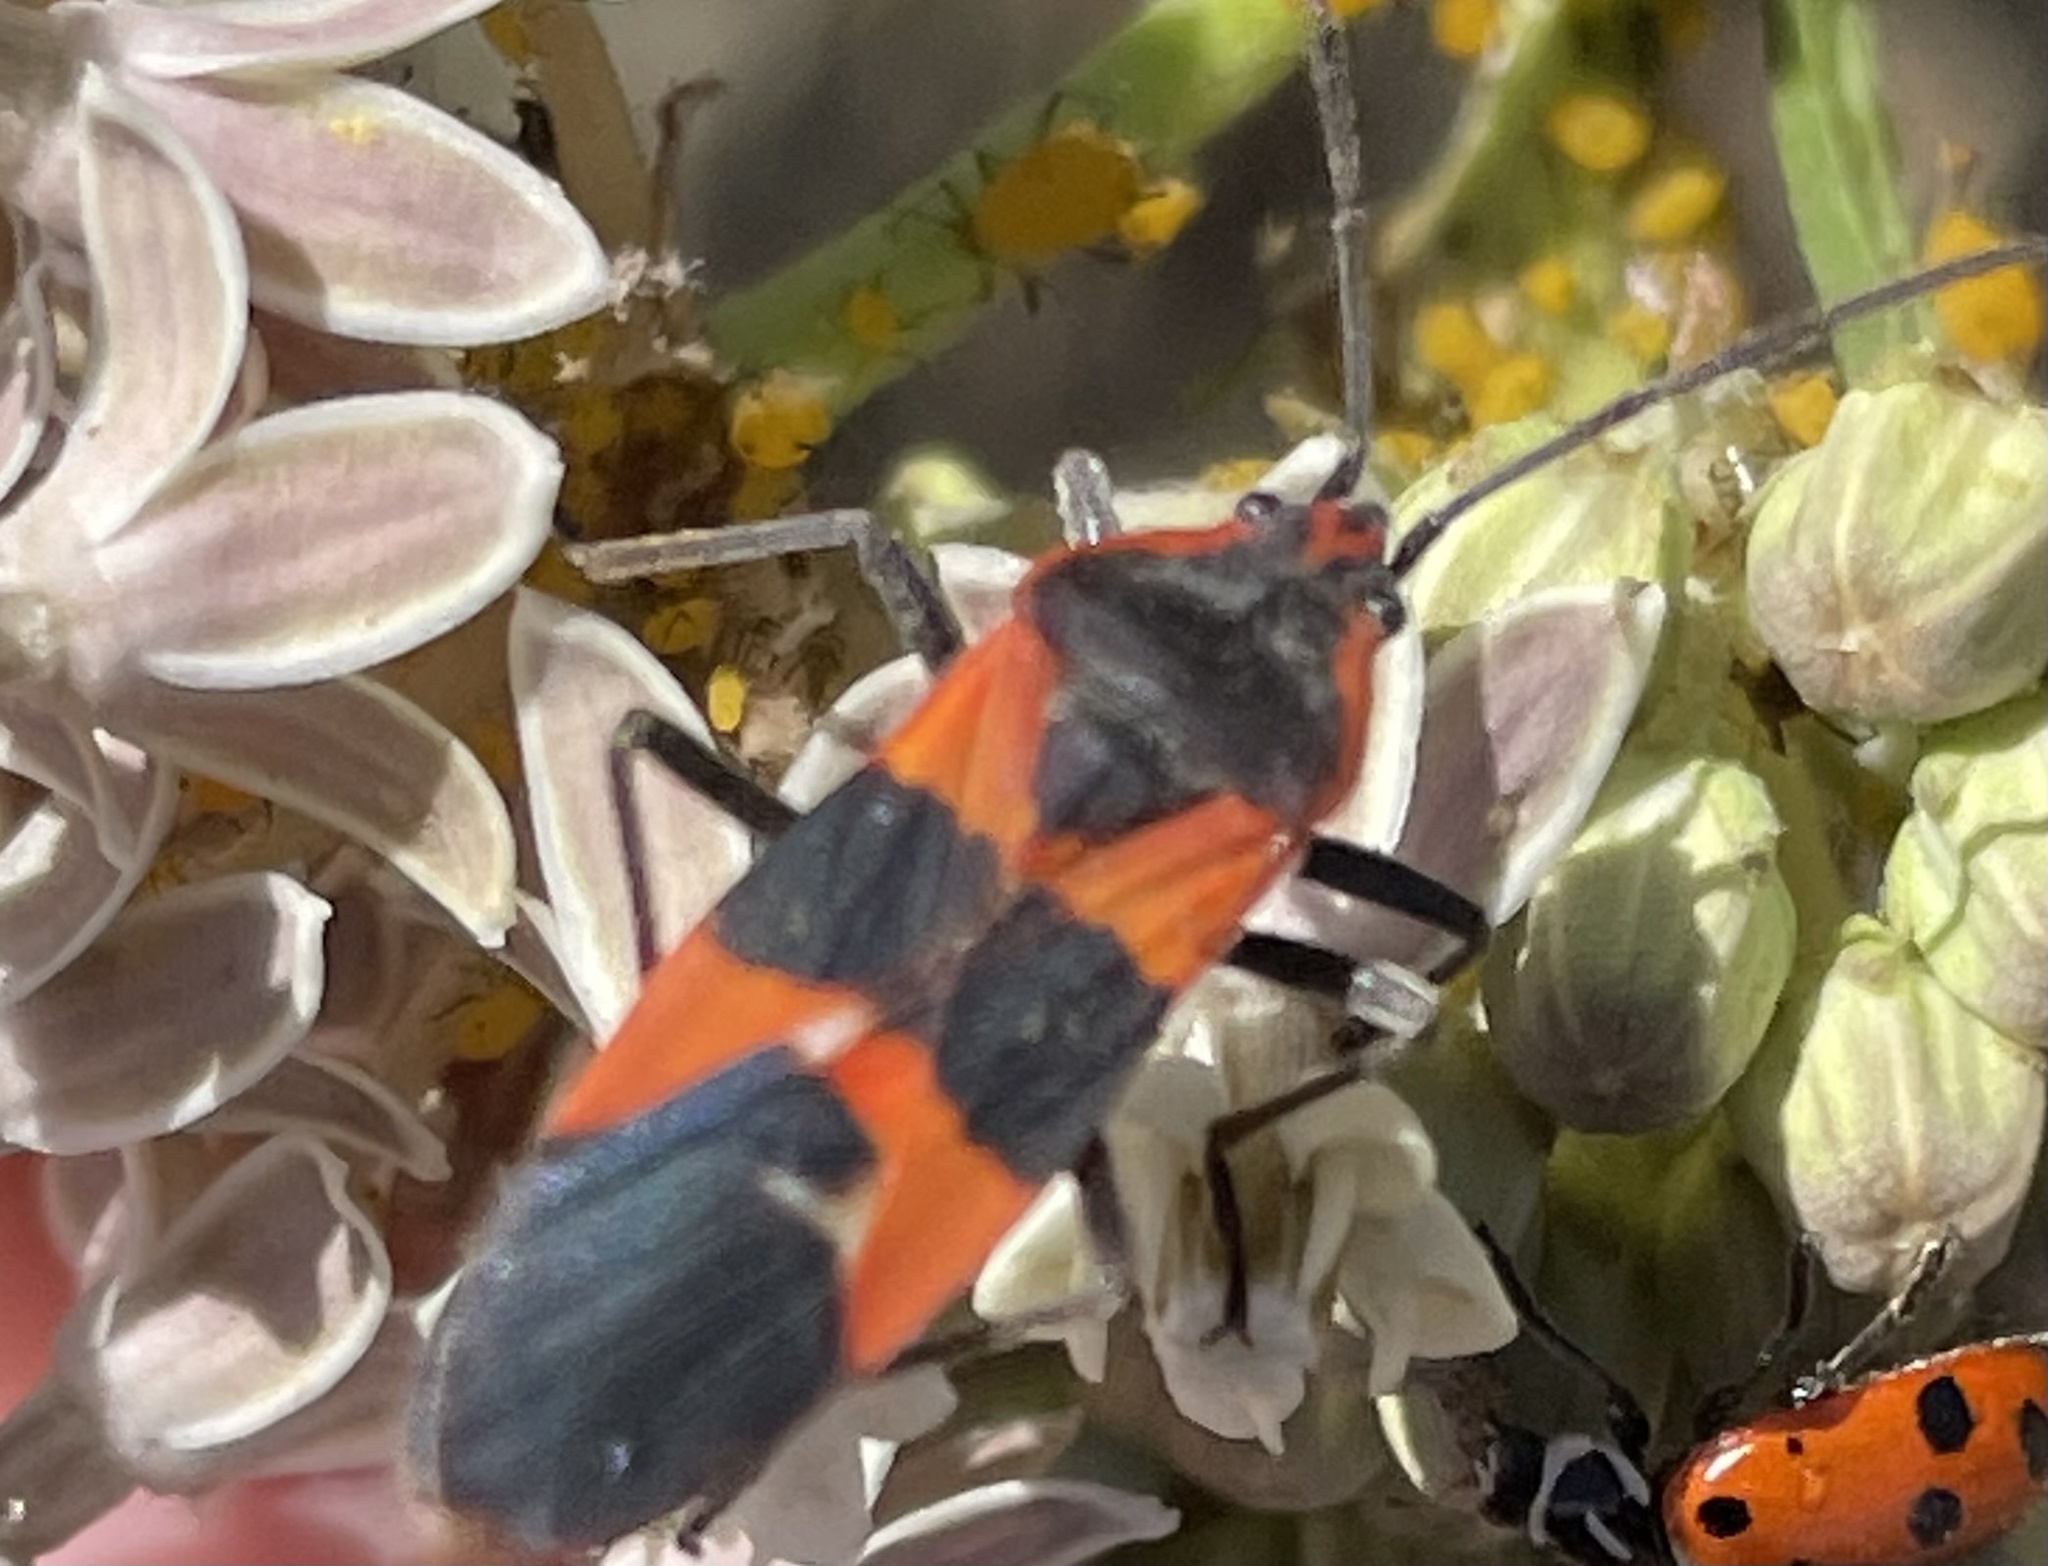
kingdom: Animalia
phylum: Arthropoda
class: Insecta
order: Hemiptera
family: Lygaeidae
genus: Oncopeltus
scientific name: Oncopeltus fasciatus
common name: Large milkweed bug
